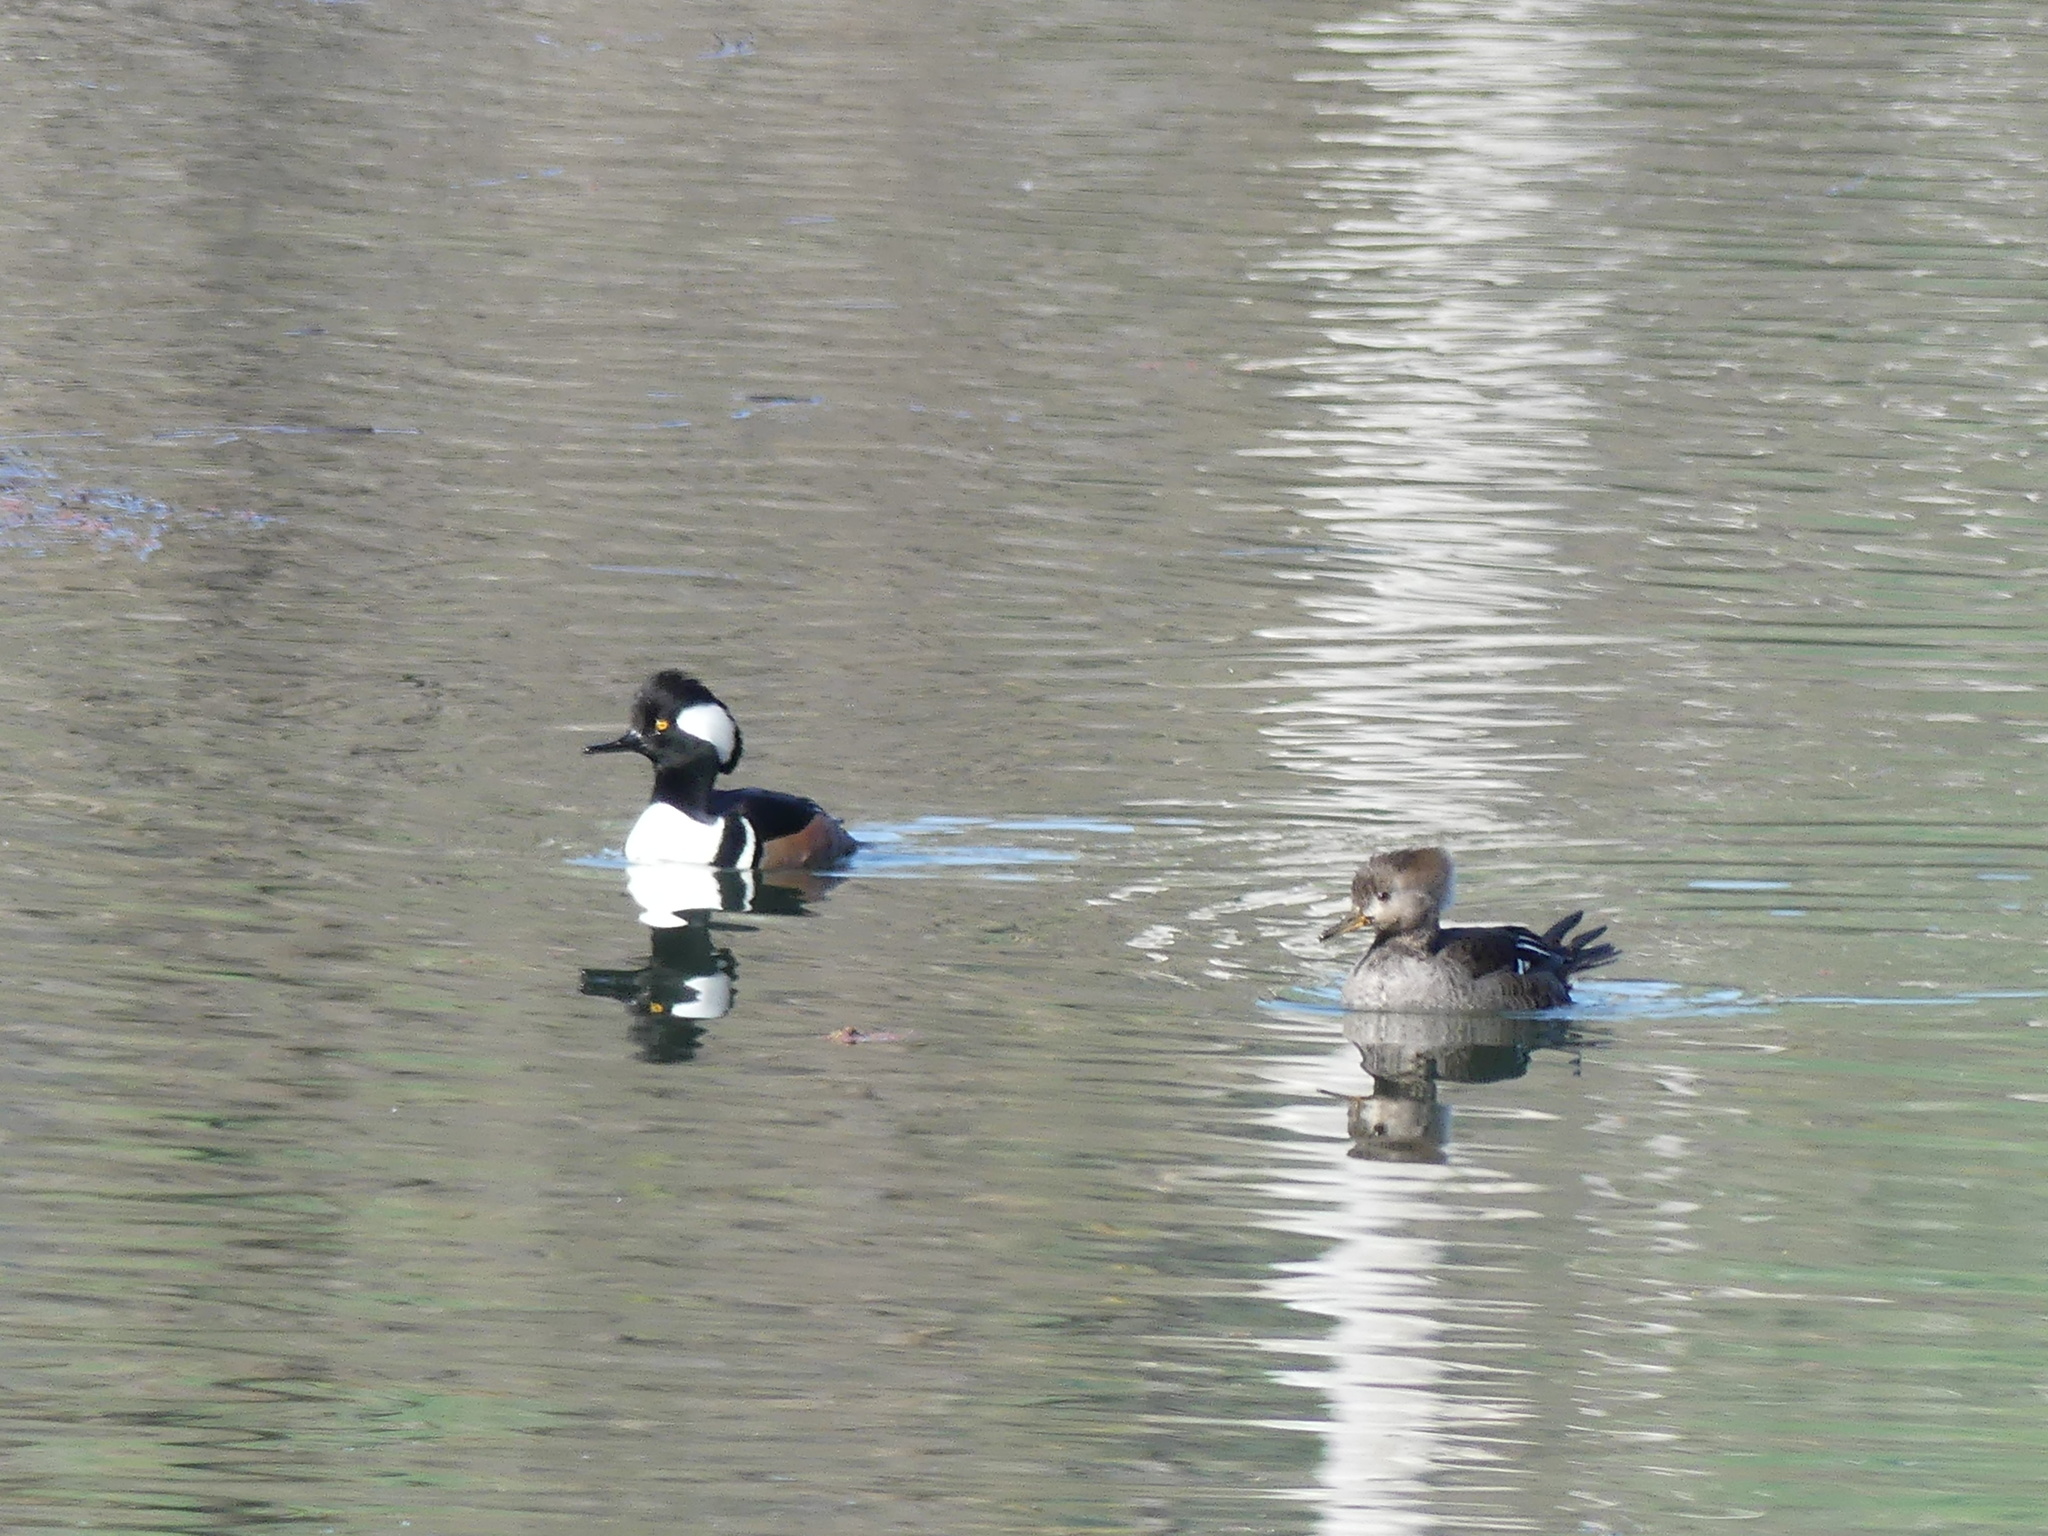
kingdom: Animalia
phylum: Chordata
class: Aves
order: Anseriformes
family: Anatidae
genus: Lophodytes
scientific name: Lophodytes cucullatus
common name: Hooded merganser
